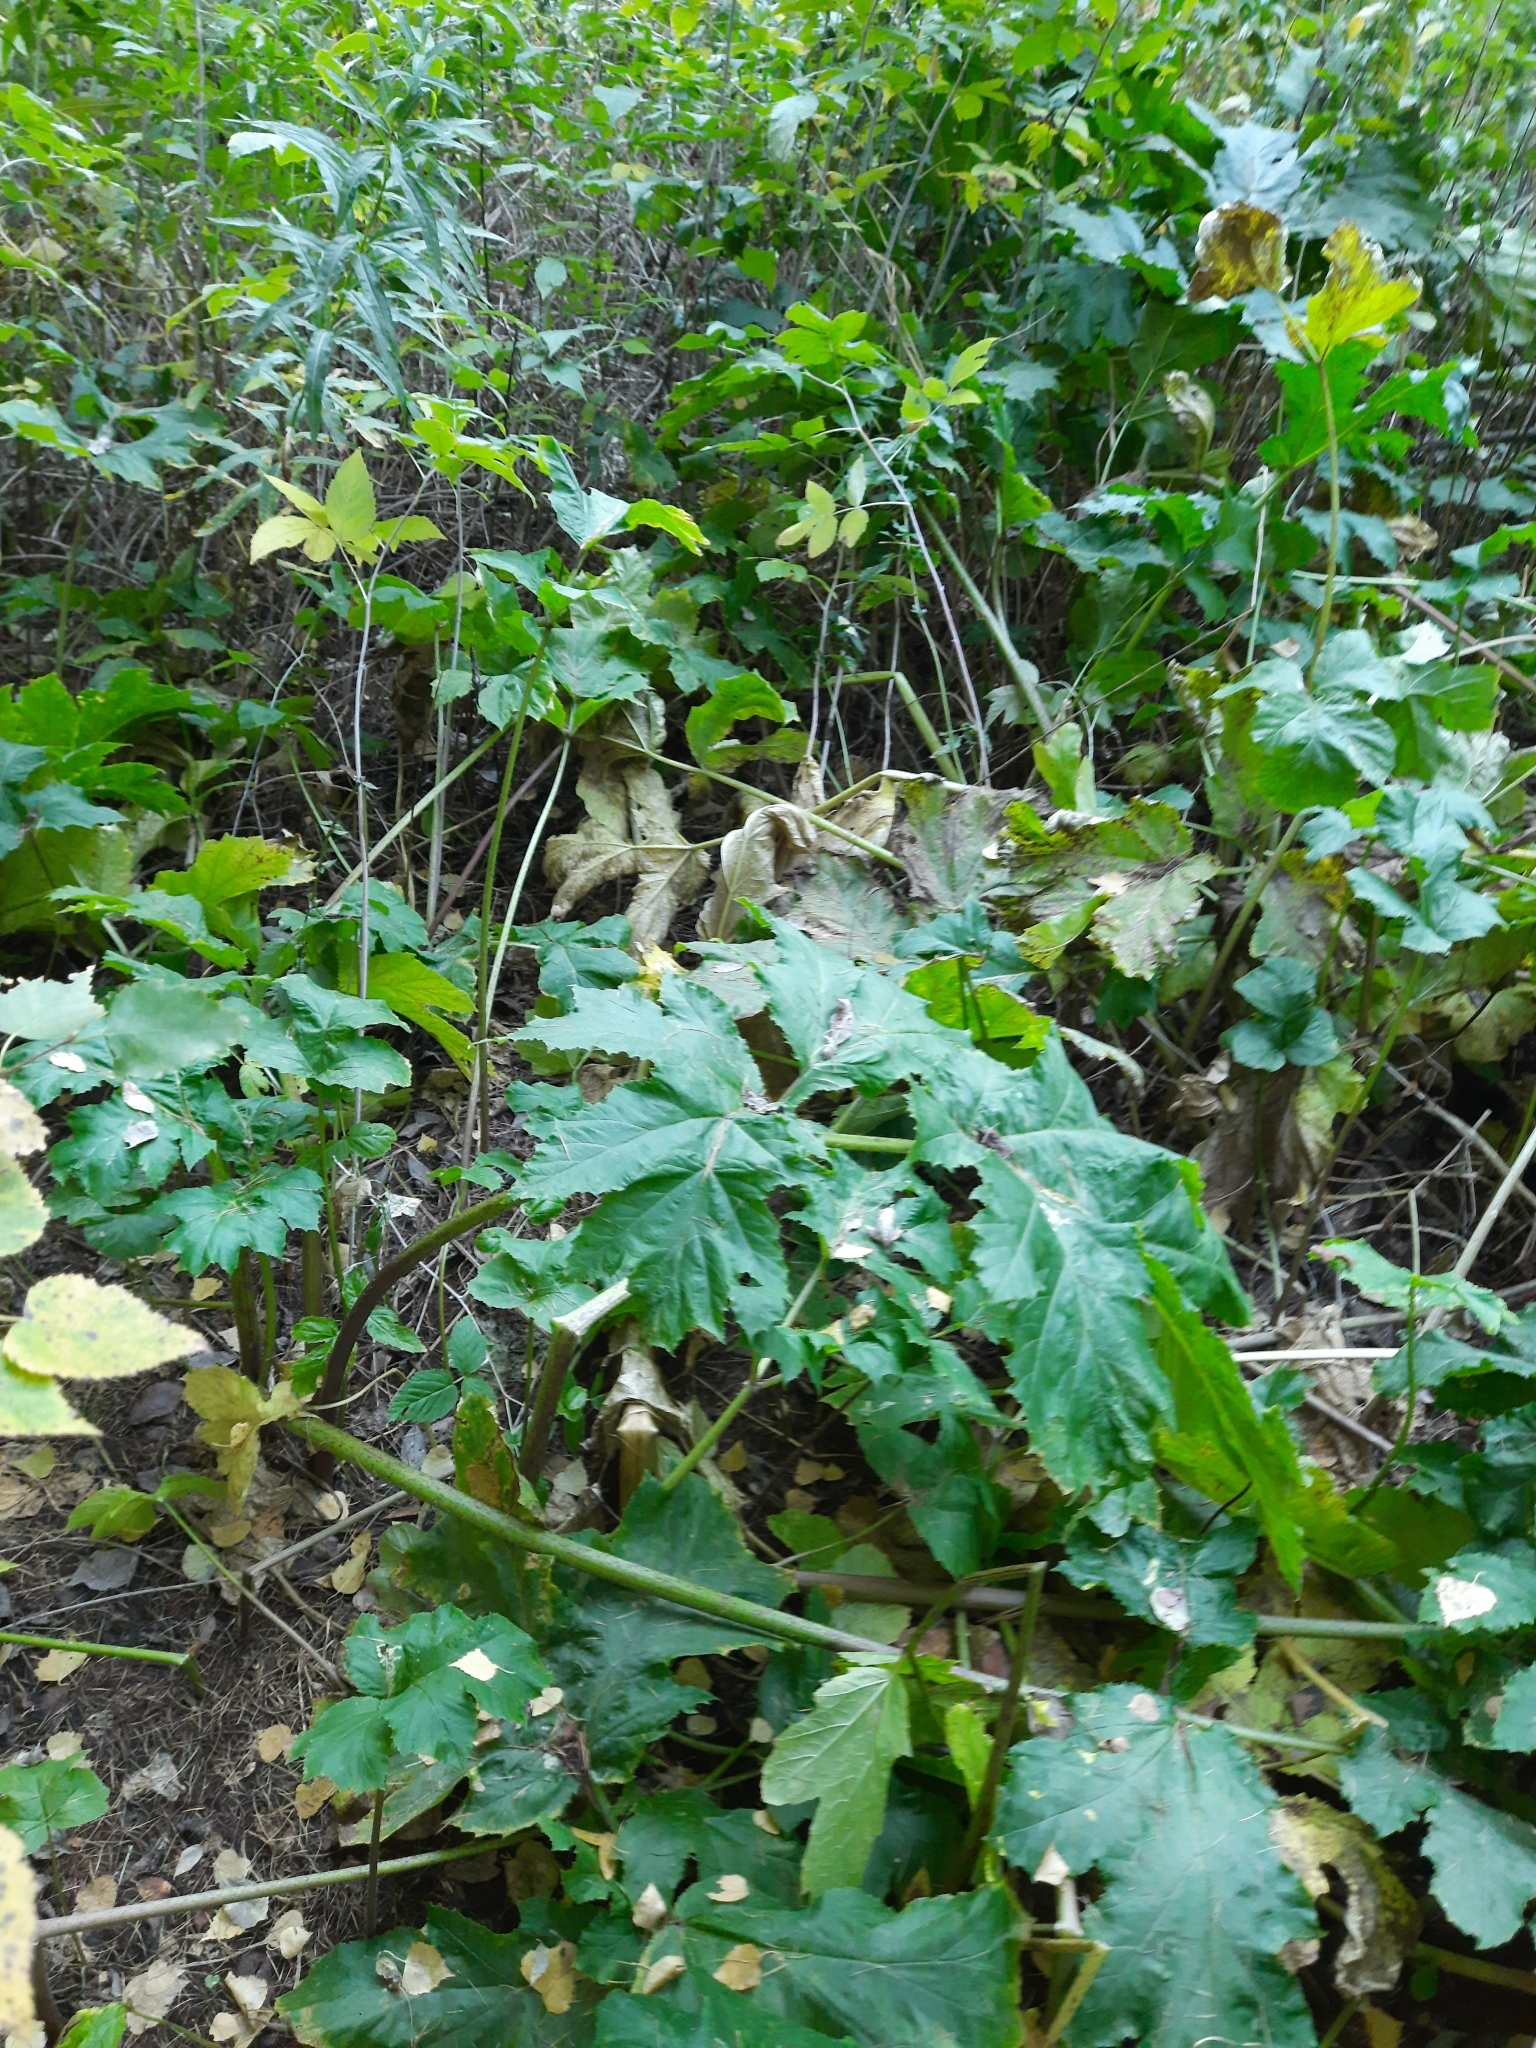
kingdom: Plantae
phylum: Tracheophyta
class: Magnoliopsida
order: Apiales
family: Apiaceae
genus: Heracleum
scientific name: Heracleum sosnowskyi
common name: Sosnowsky's hogweed
